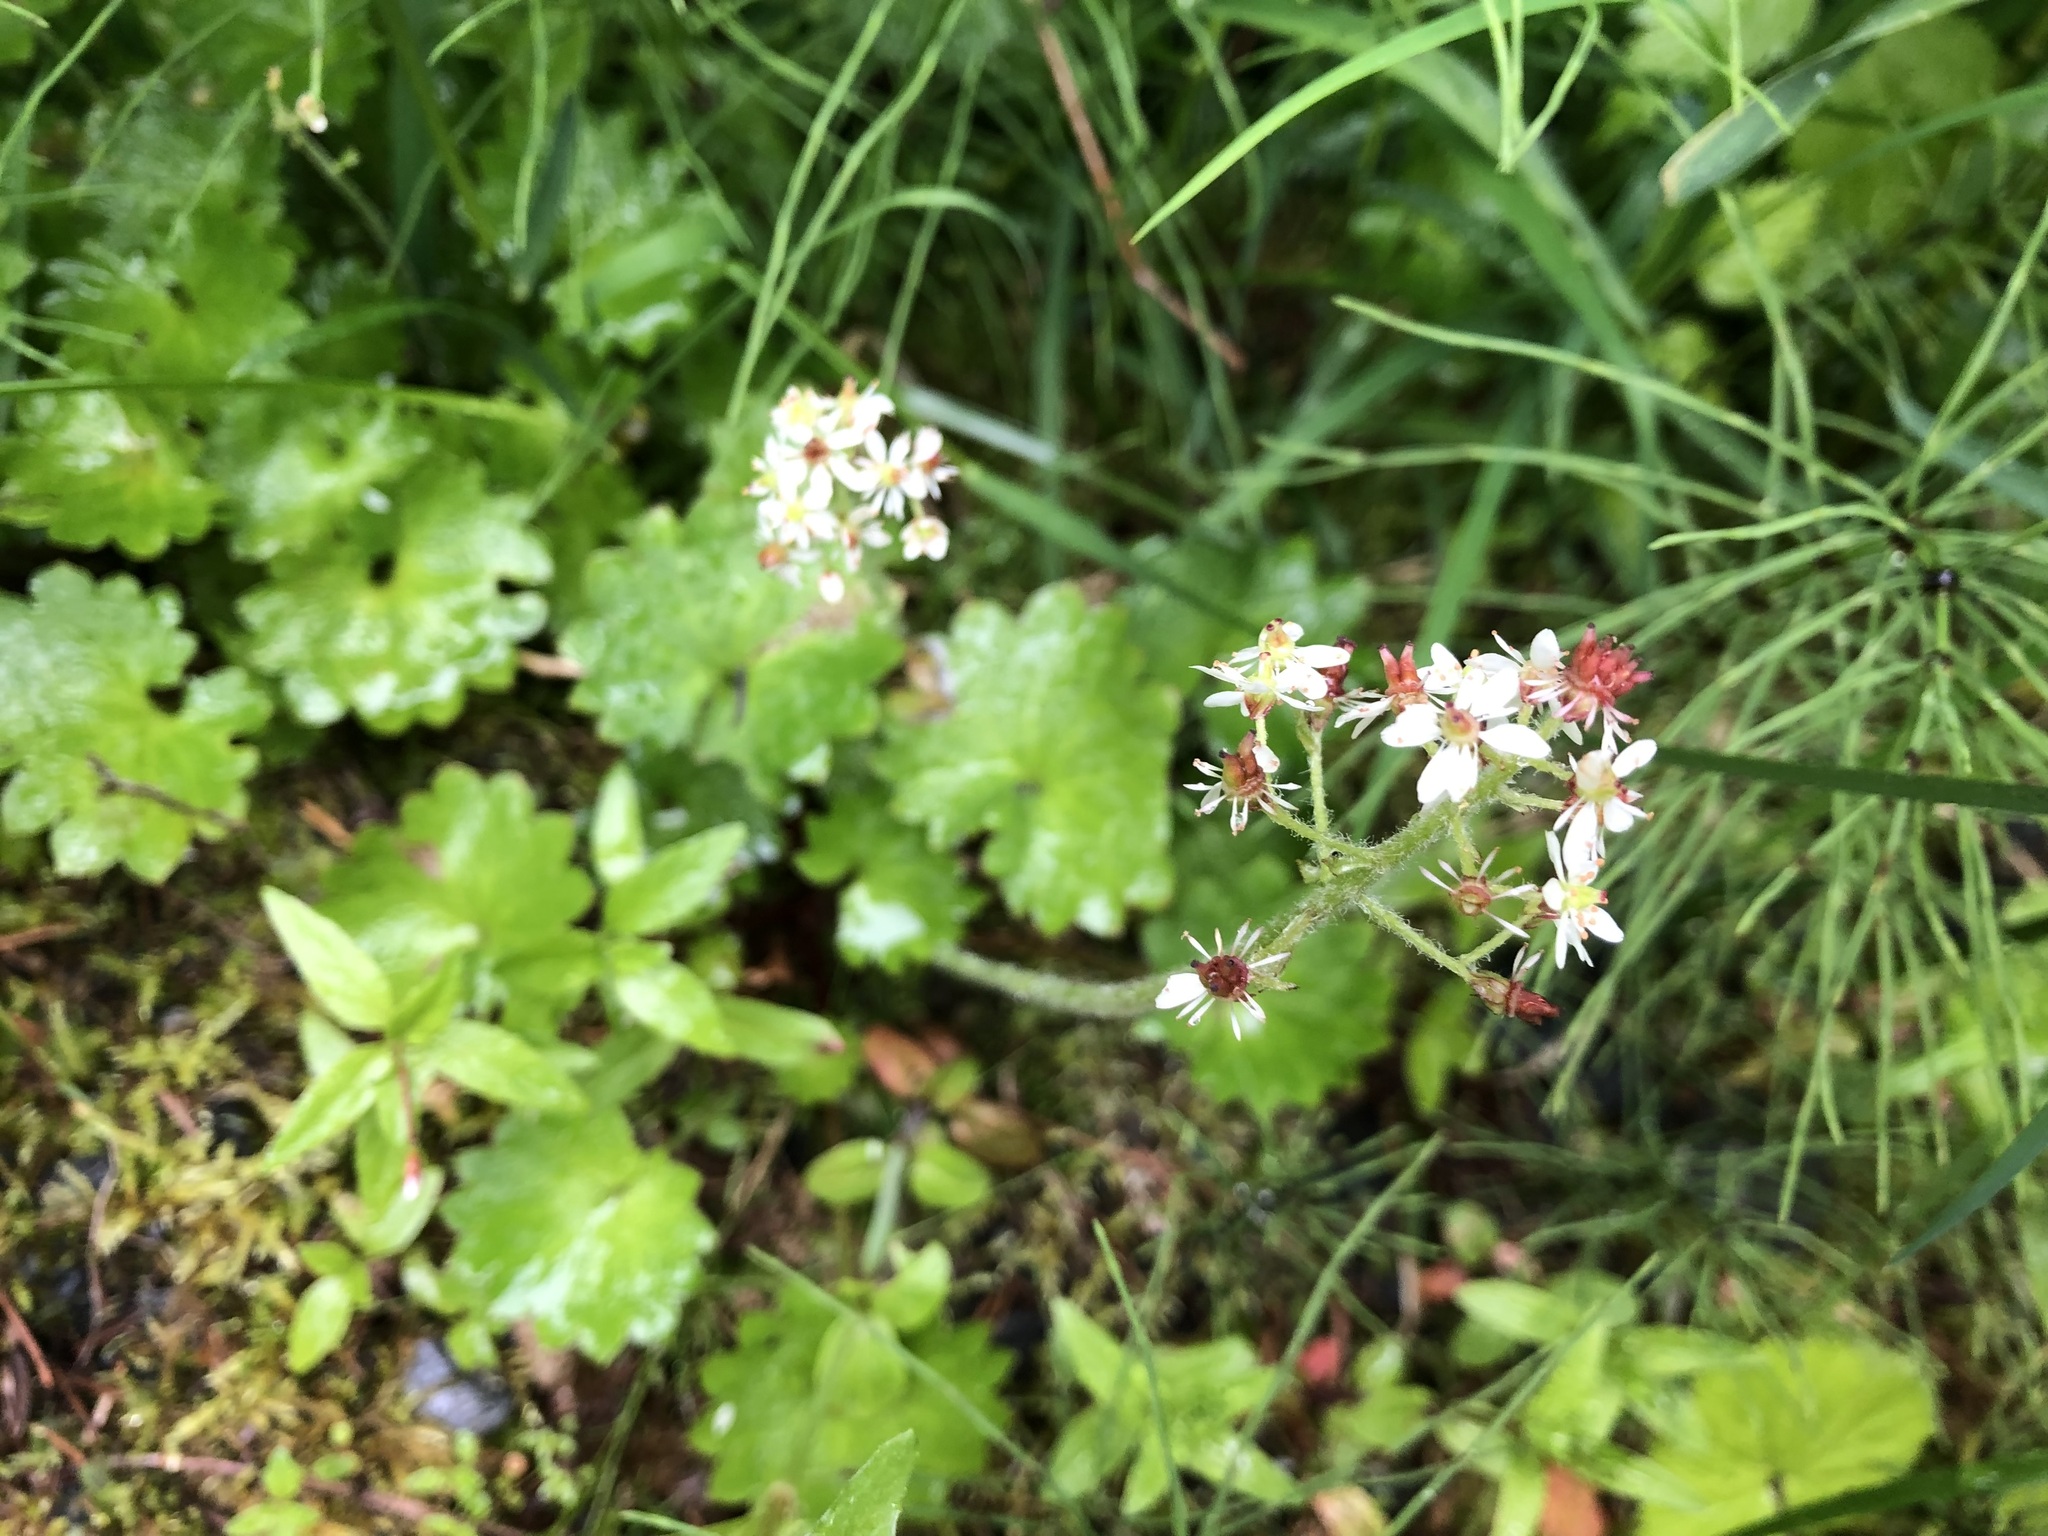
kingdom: Plantae
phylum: Tracheophyta
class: Magnoliopsida
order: Saxifragales
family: Saxifragaceae
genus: Micranthes
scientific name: Micranthes nelsoniana
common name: Nelson's saxifrage
